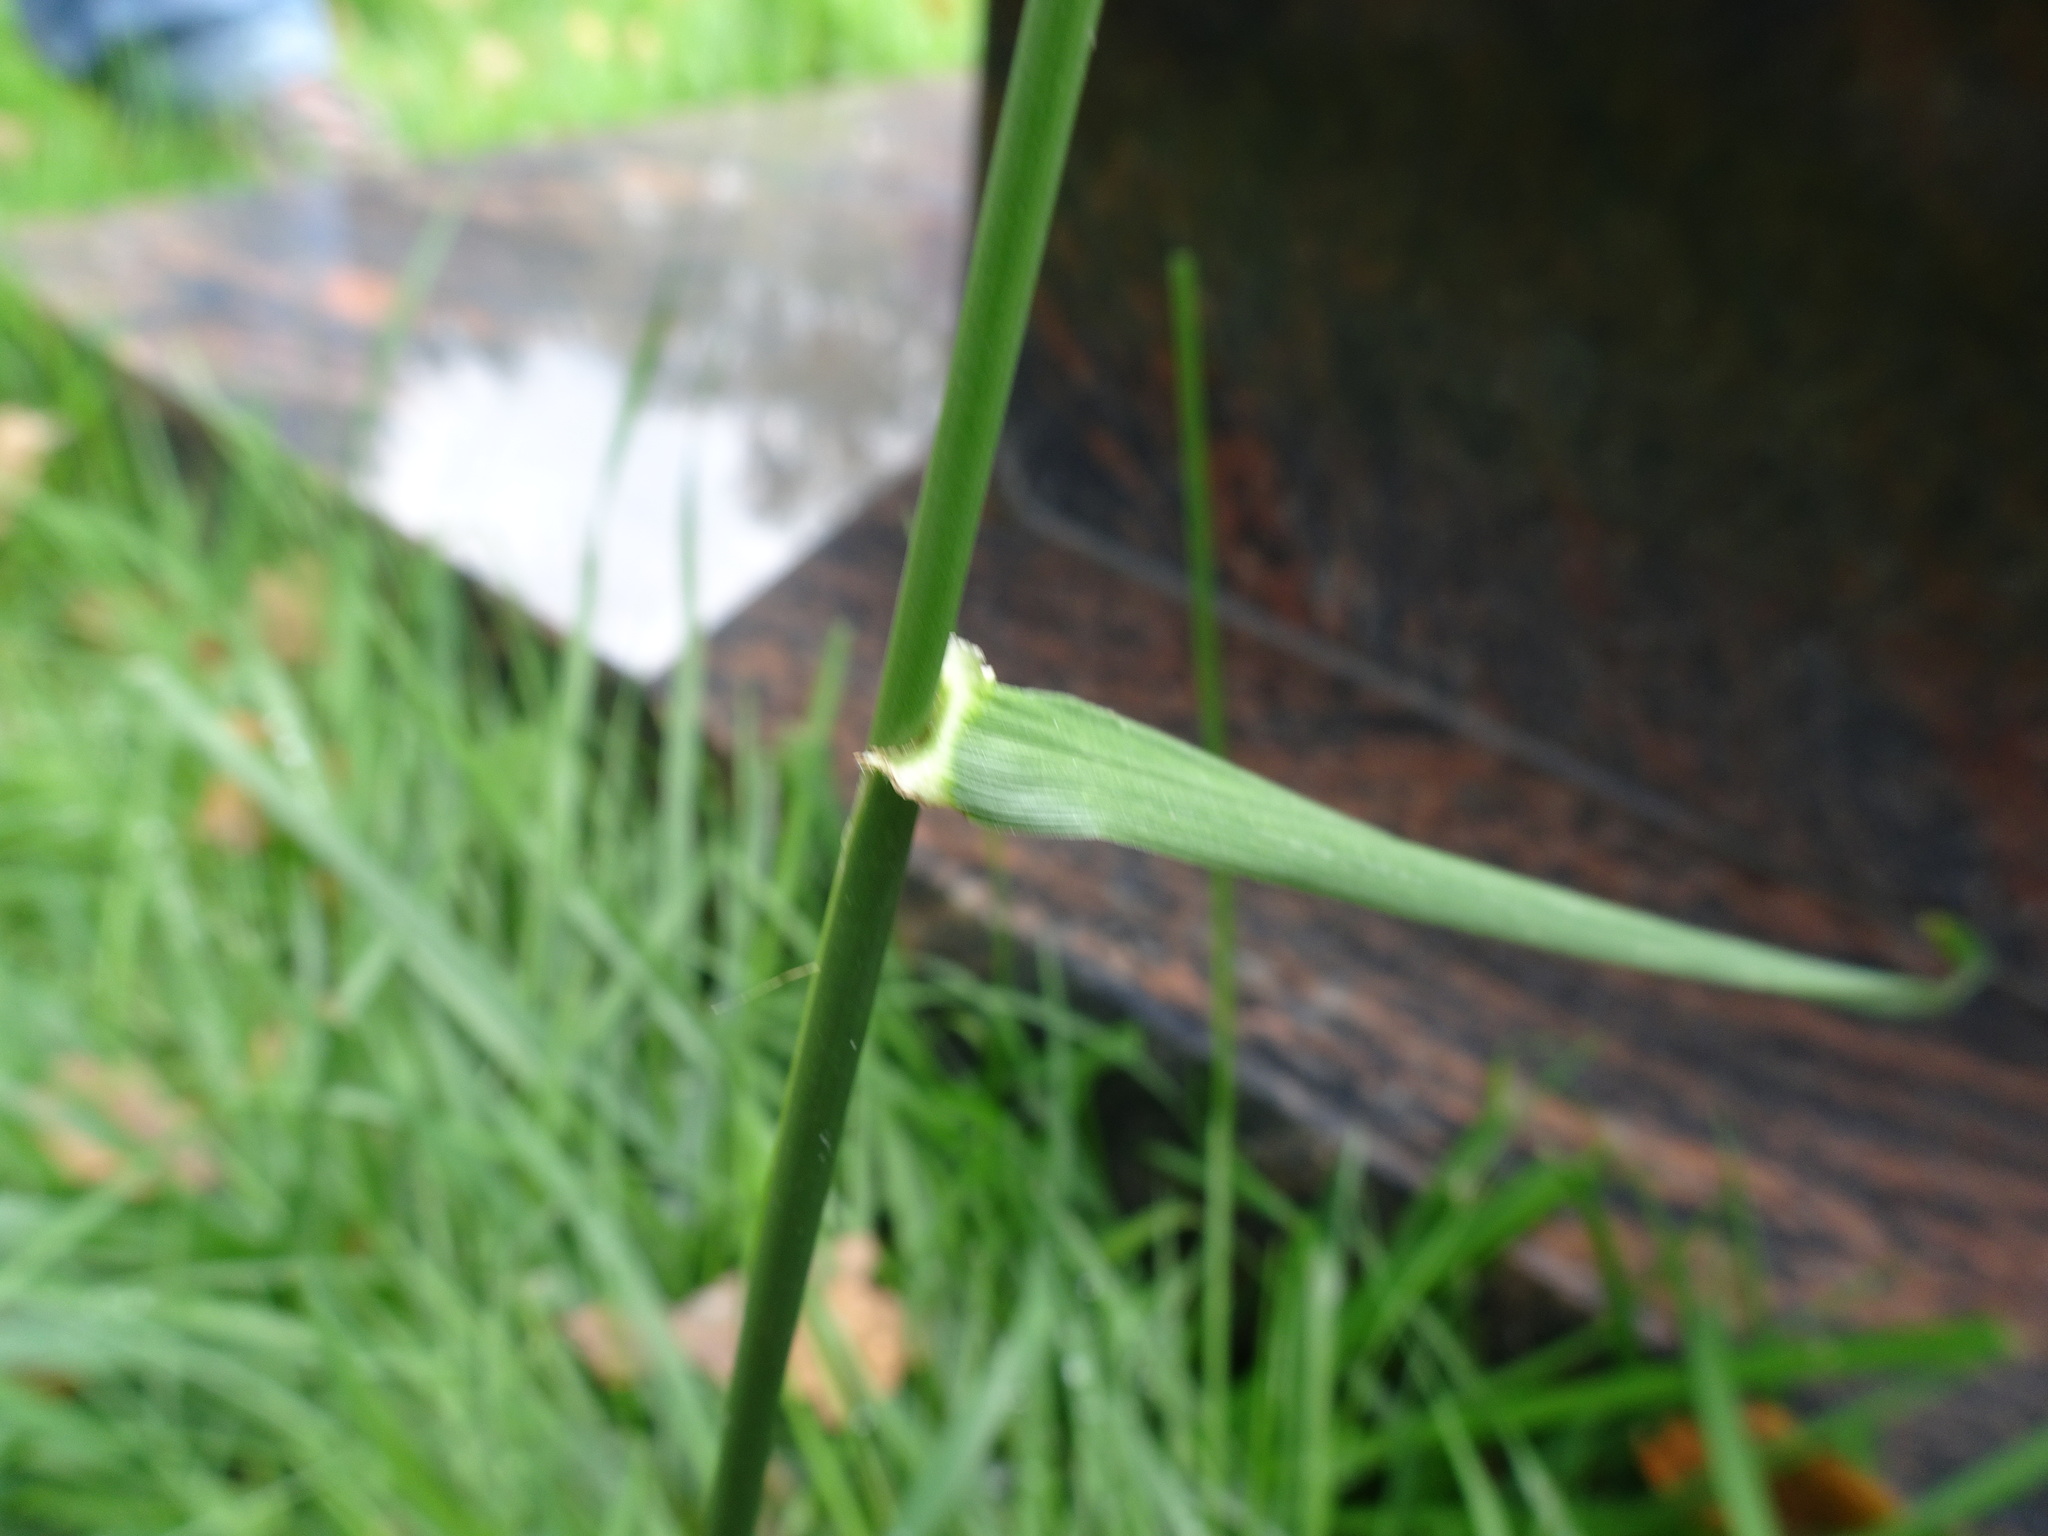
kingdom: Plantae
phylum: Tracheophyta
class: Liliopsida
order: Poales
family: Poaceae
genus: Lolium
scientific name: Lolium arundinaceum
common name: Reed fescue
